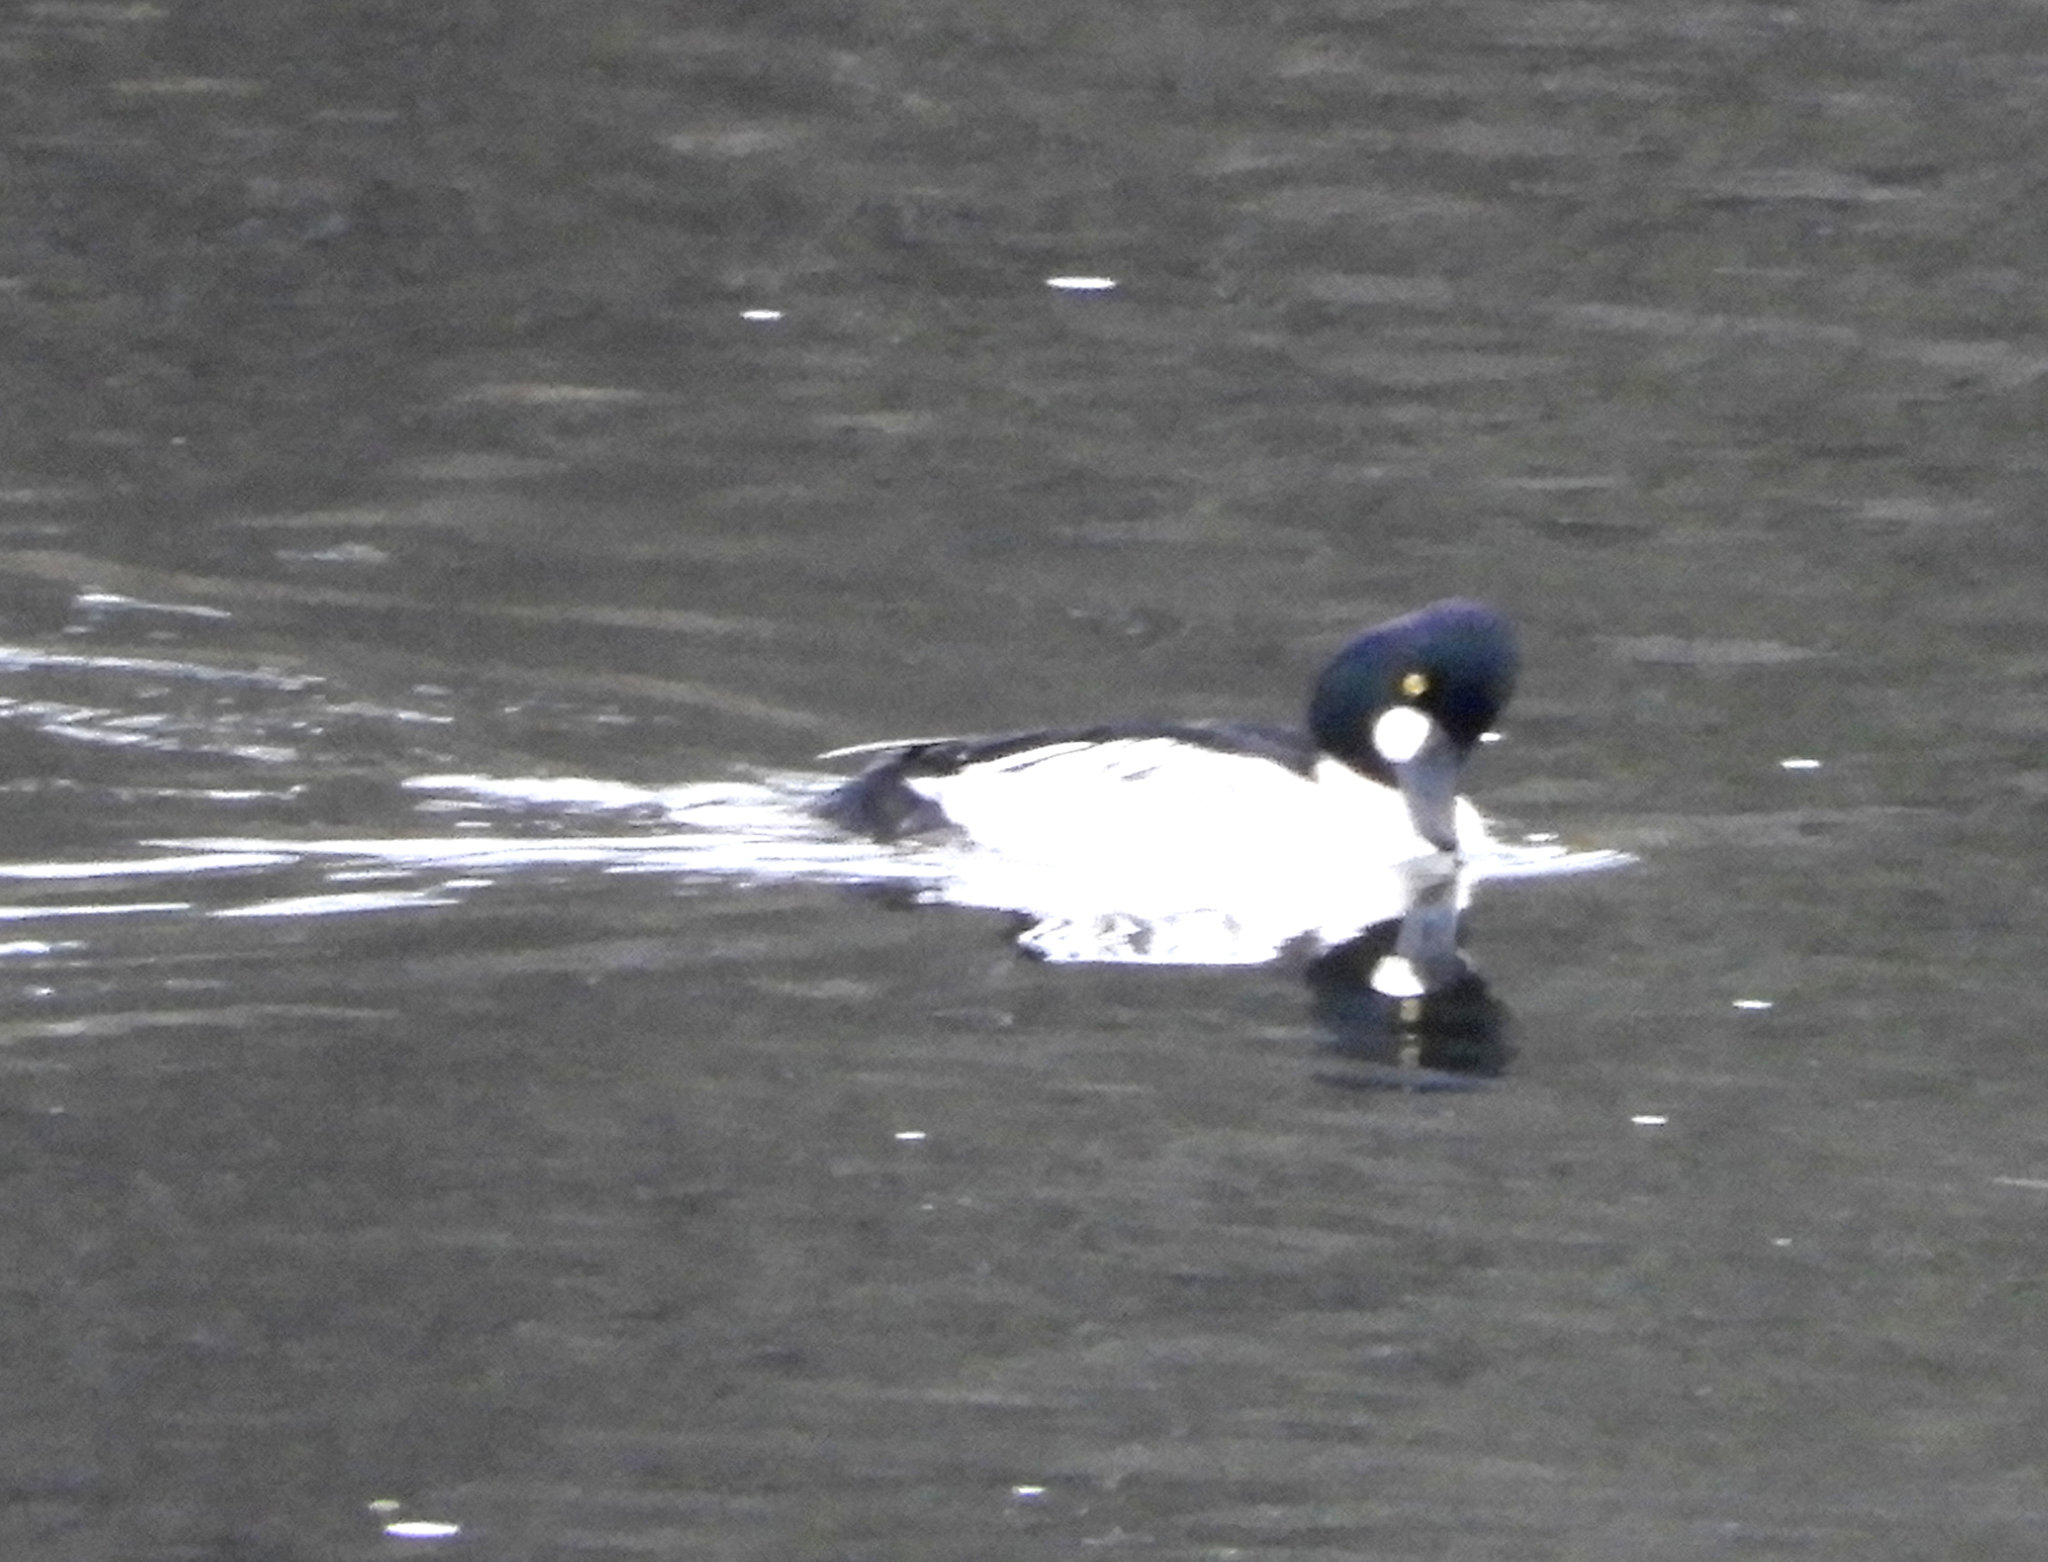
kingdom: Animalia
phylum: Chordata
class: Aves
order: Anseriformes
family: Anatidae
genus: Bucephala
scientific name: Bucephala clangula
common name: Common goldeneye
